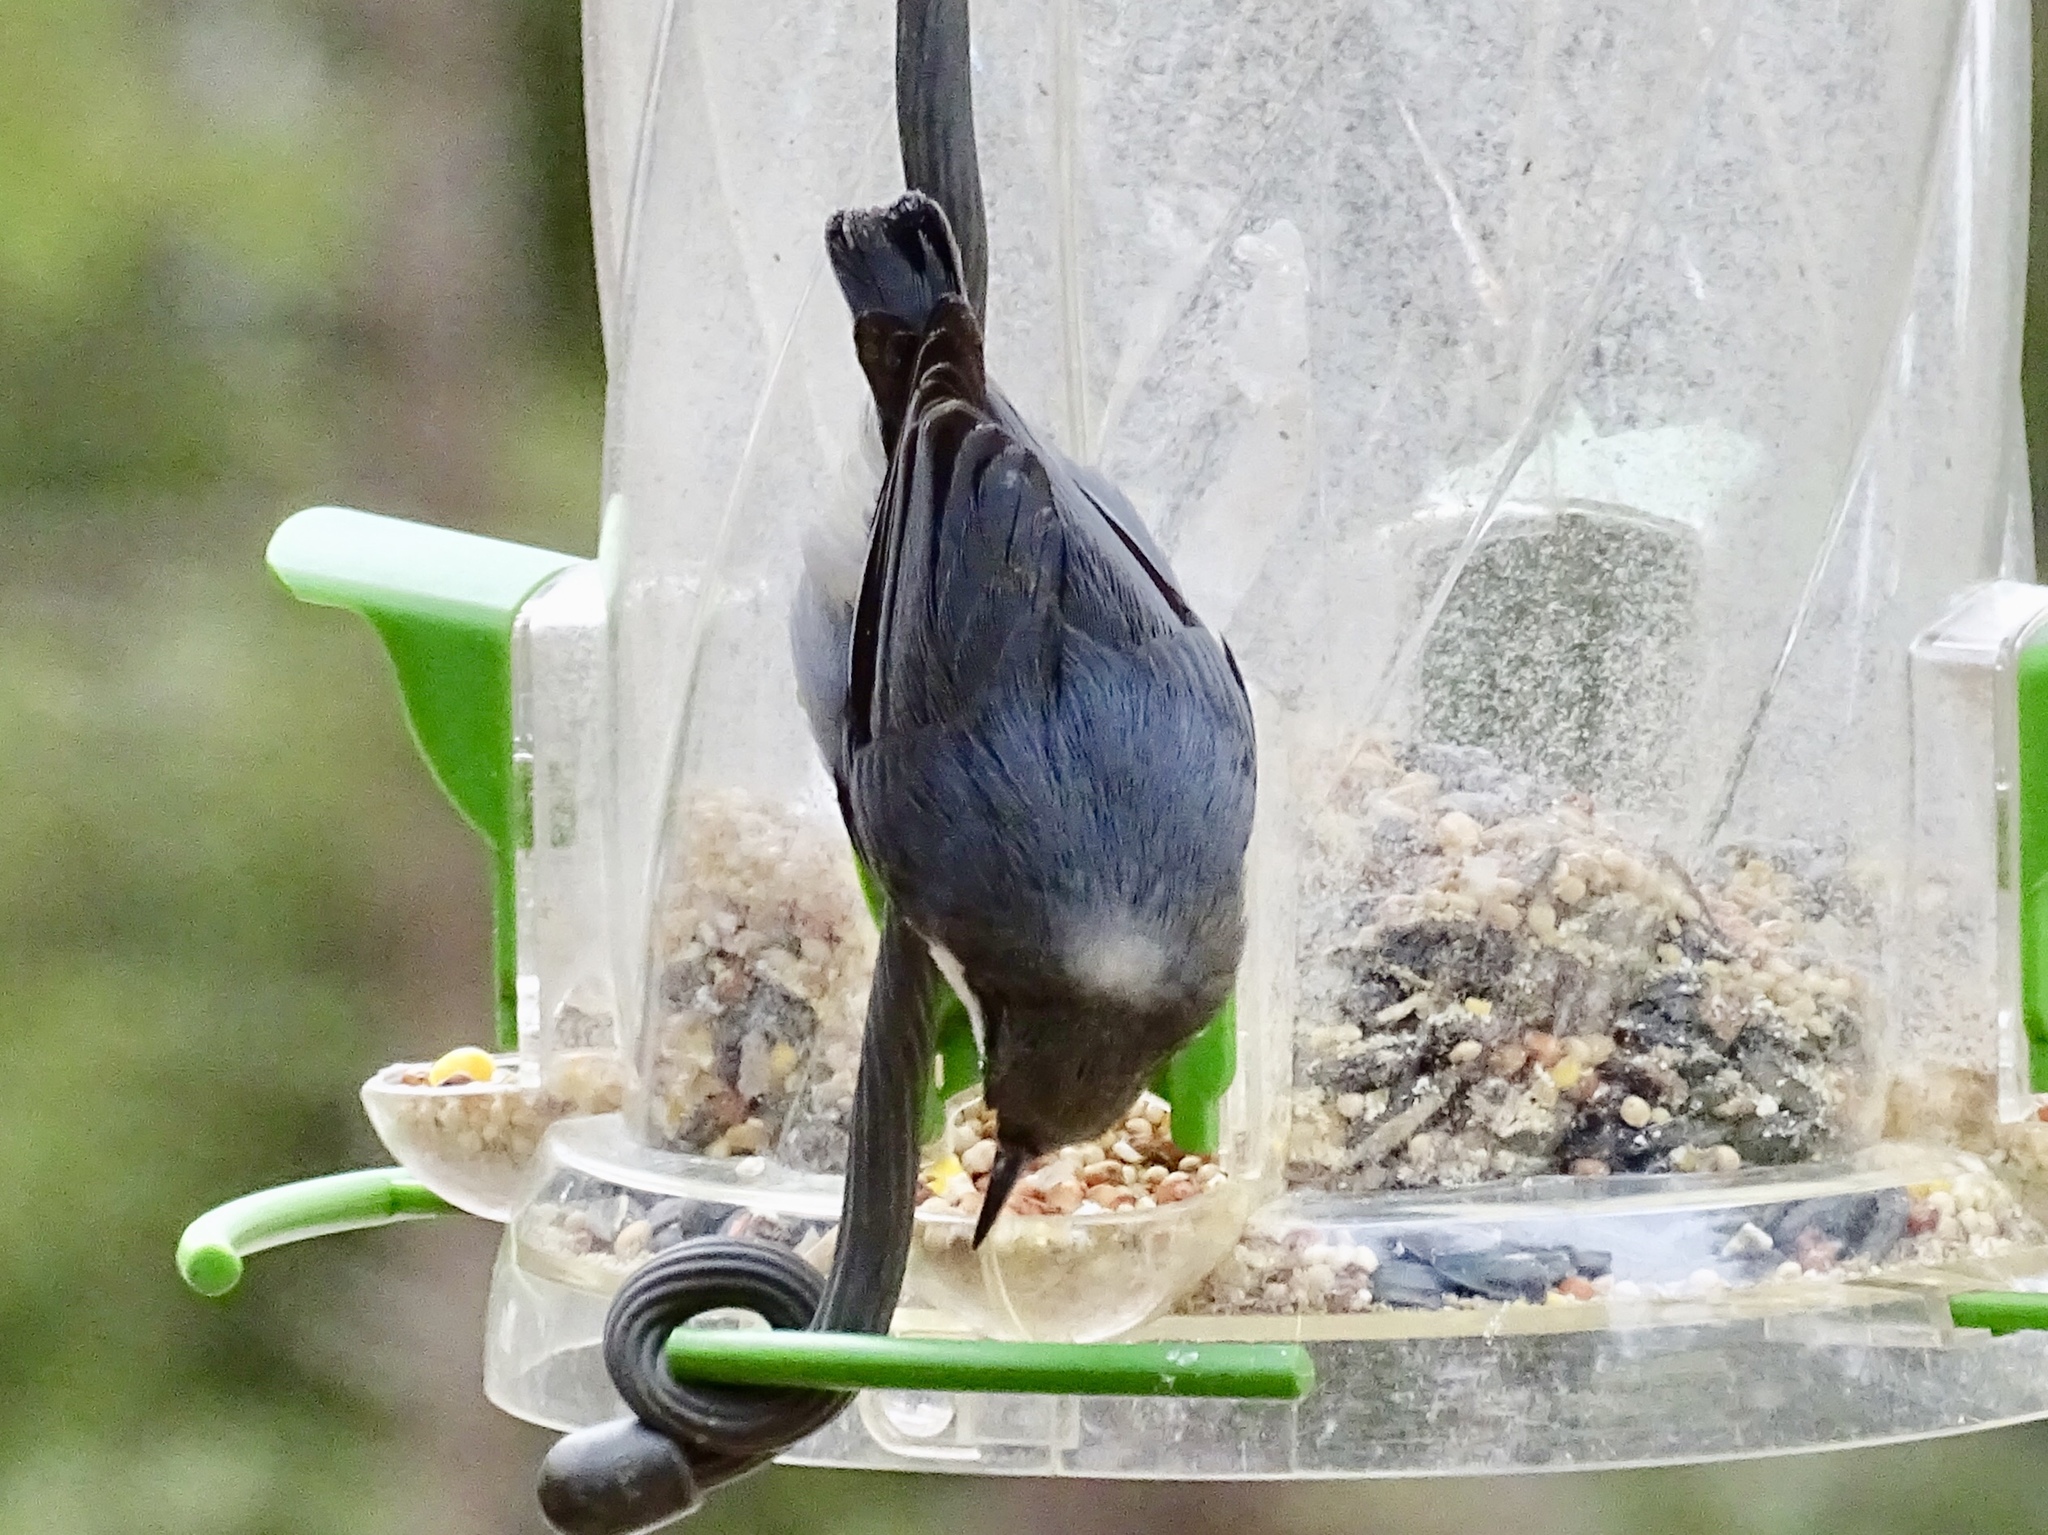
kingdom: Animalia
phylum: Chordata
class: Aves
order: Passeriformes
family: Sittidae
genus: Sitta
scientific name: Sitta pygmaea
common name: Pygmy nuthatch
